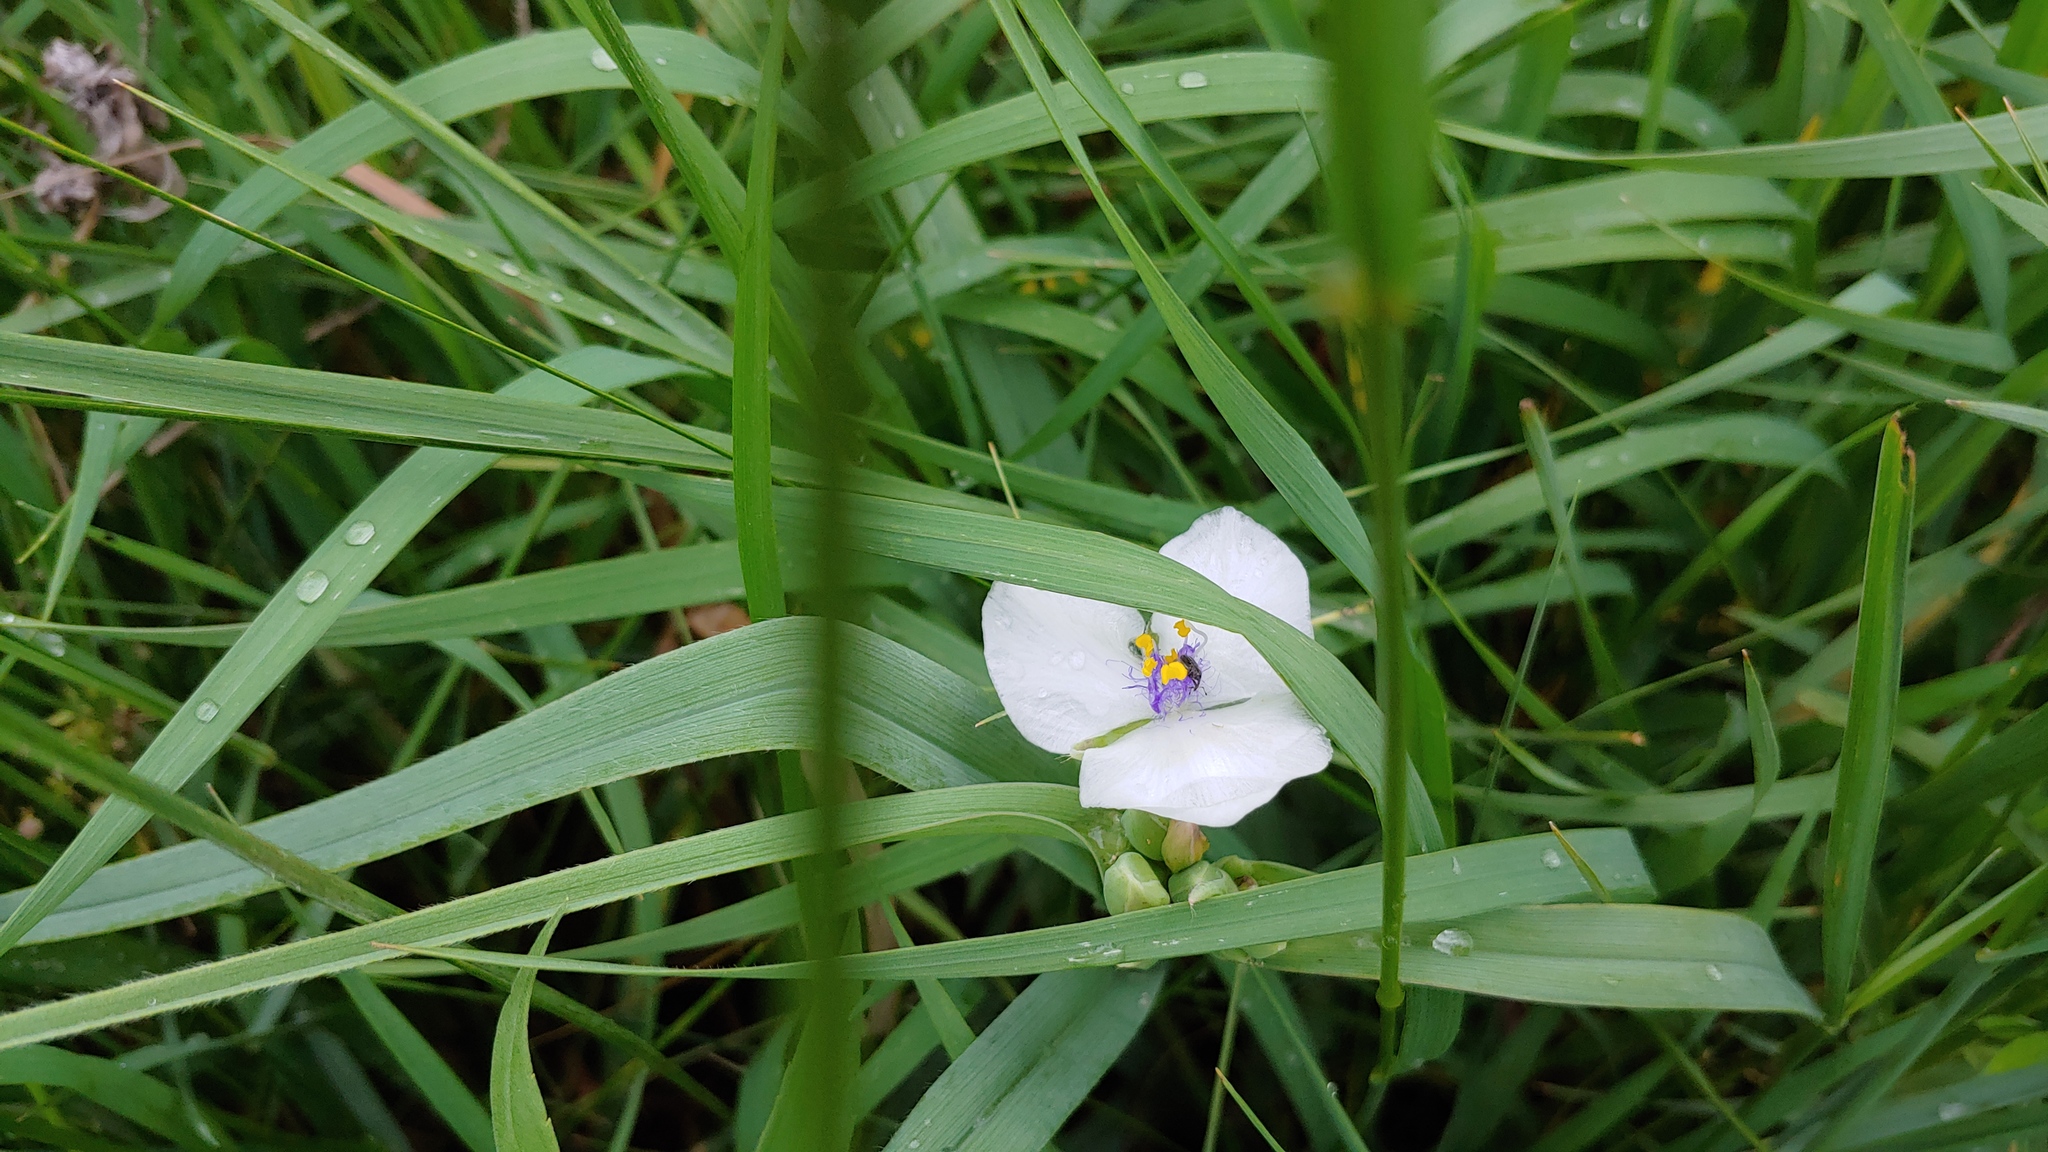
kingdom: Plantae
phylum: Tracheophyta
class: Liliopsida
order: Commelinales
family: Commelinaceae
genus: Tradescantia
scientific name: Tradescantia ohiensis
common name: Ohio spiderwort
